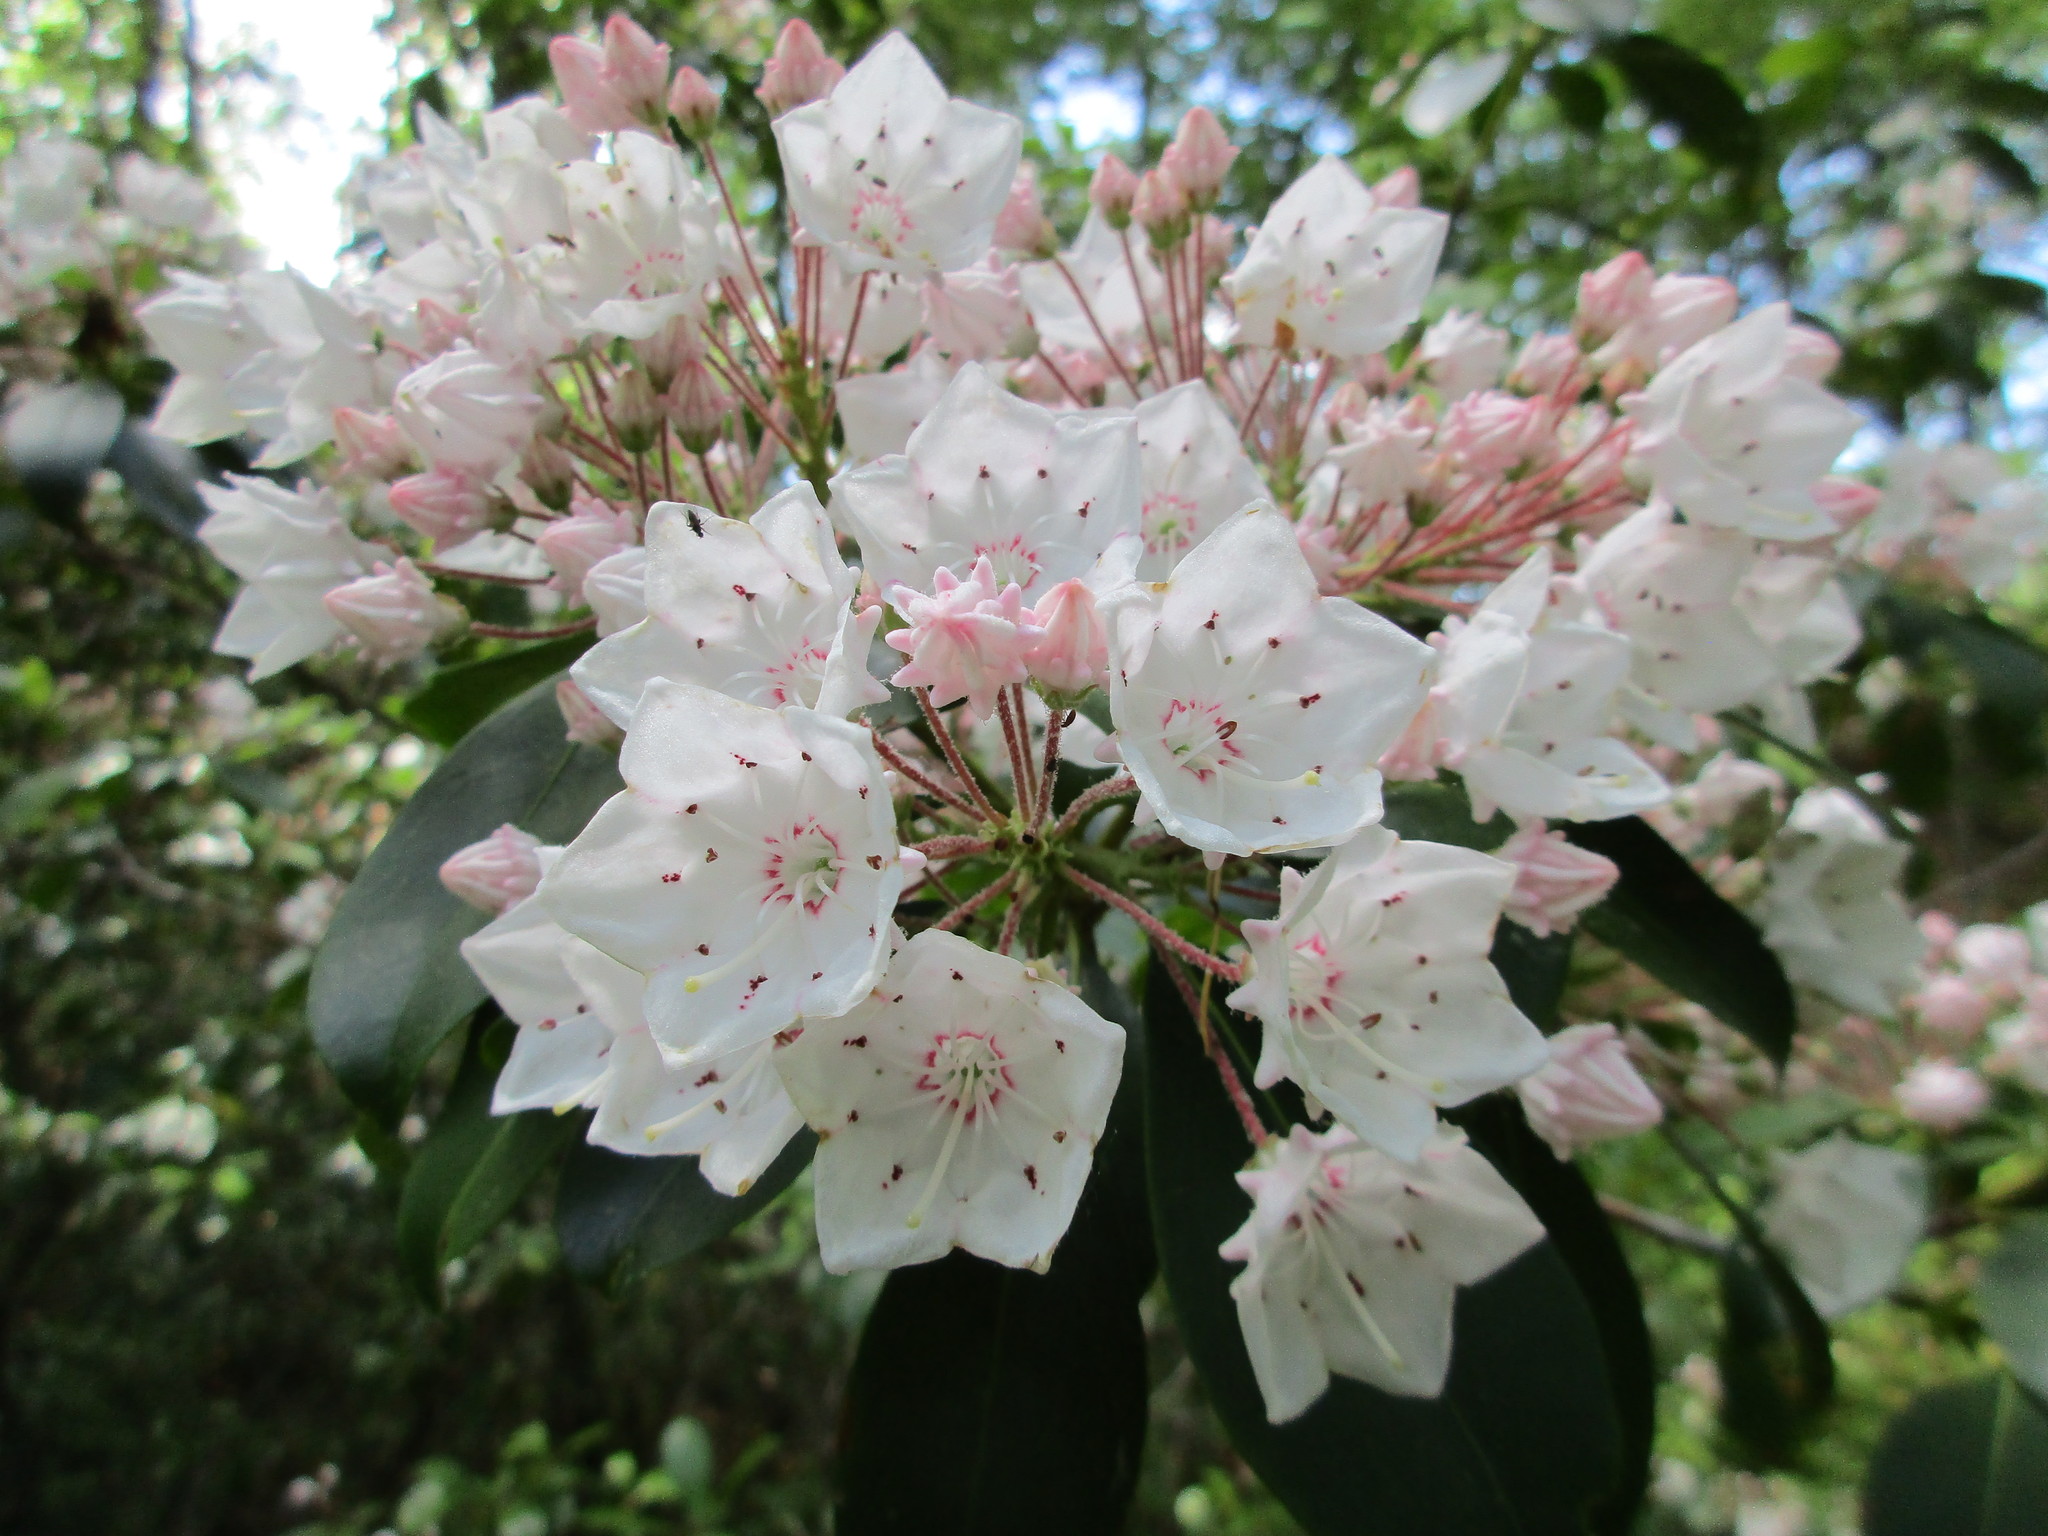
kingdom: Plantae
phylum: Tracheophyta
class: Magnoliopsida
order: Ericales
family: Ericaceae
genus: Kalmia
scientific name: Kalmia latifolia
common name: Mountain-laurel
